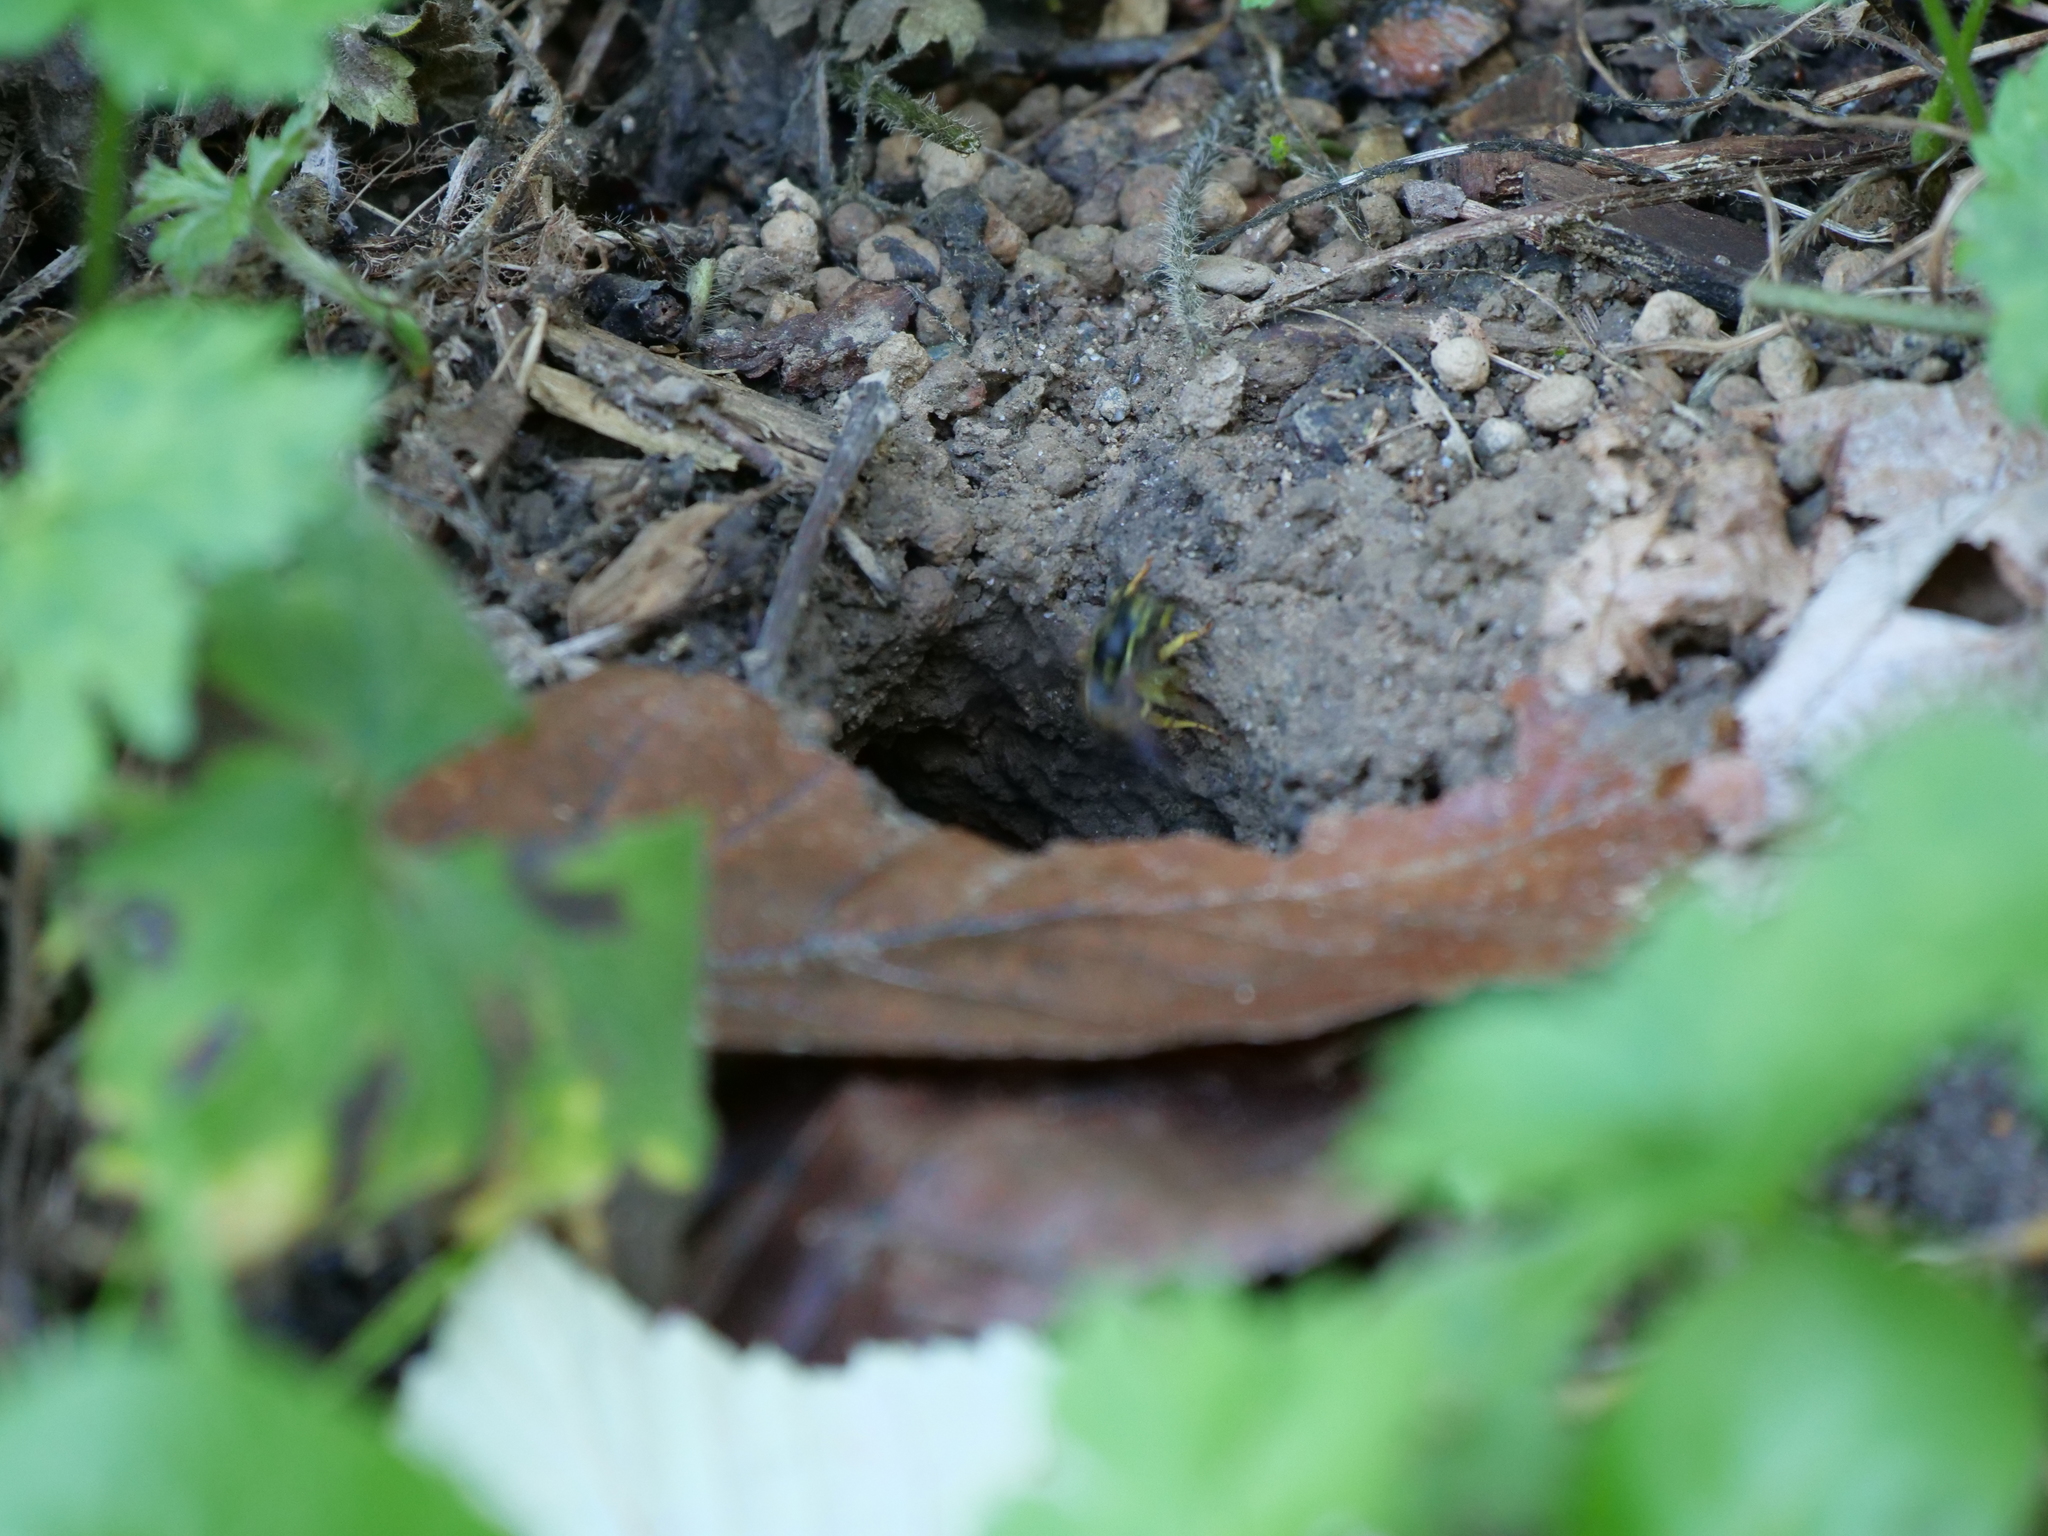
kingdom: Animalia
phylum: Arthropoda
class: Insecta
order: Hymenoptera
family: Vespidae
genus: Vespula
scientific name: Vespula alascensis
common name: Alaska yellowjacket
